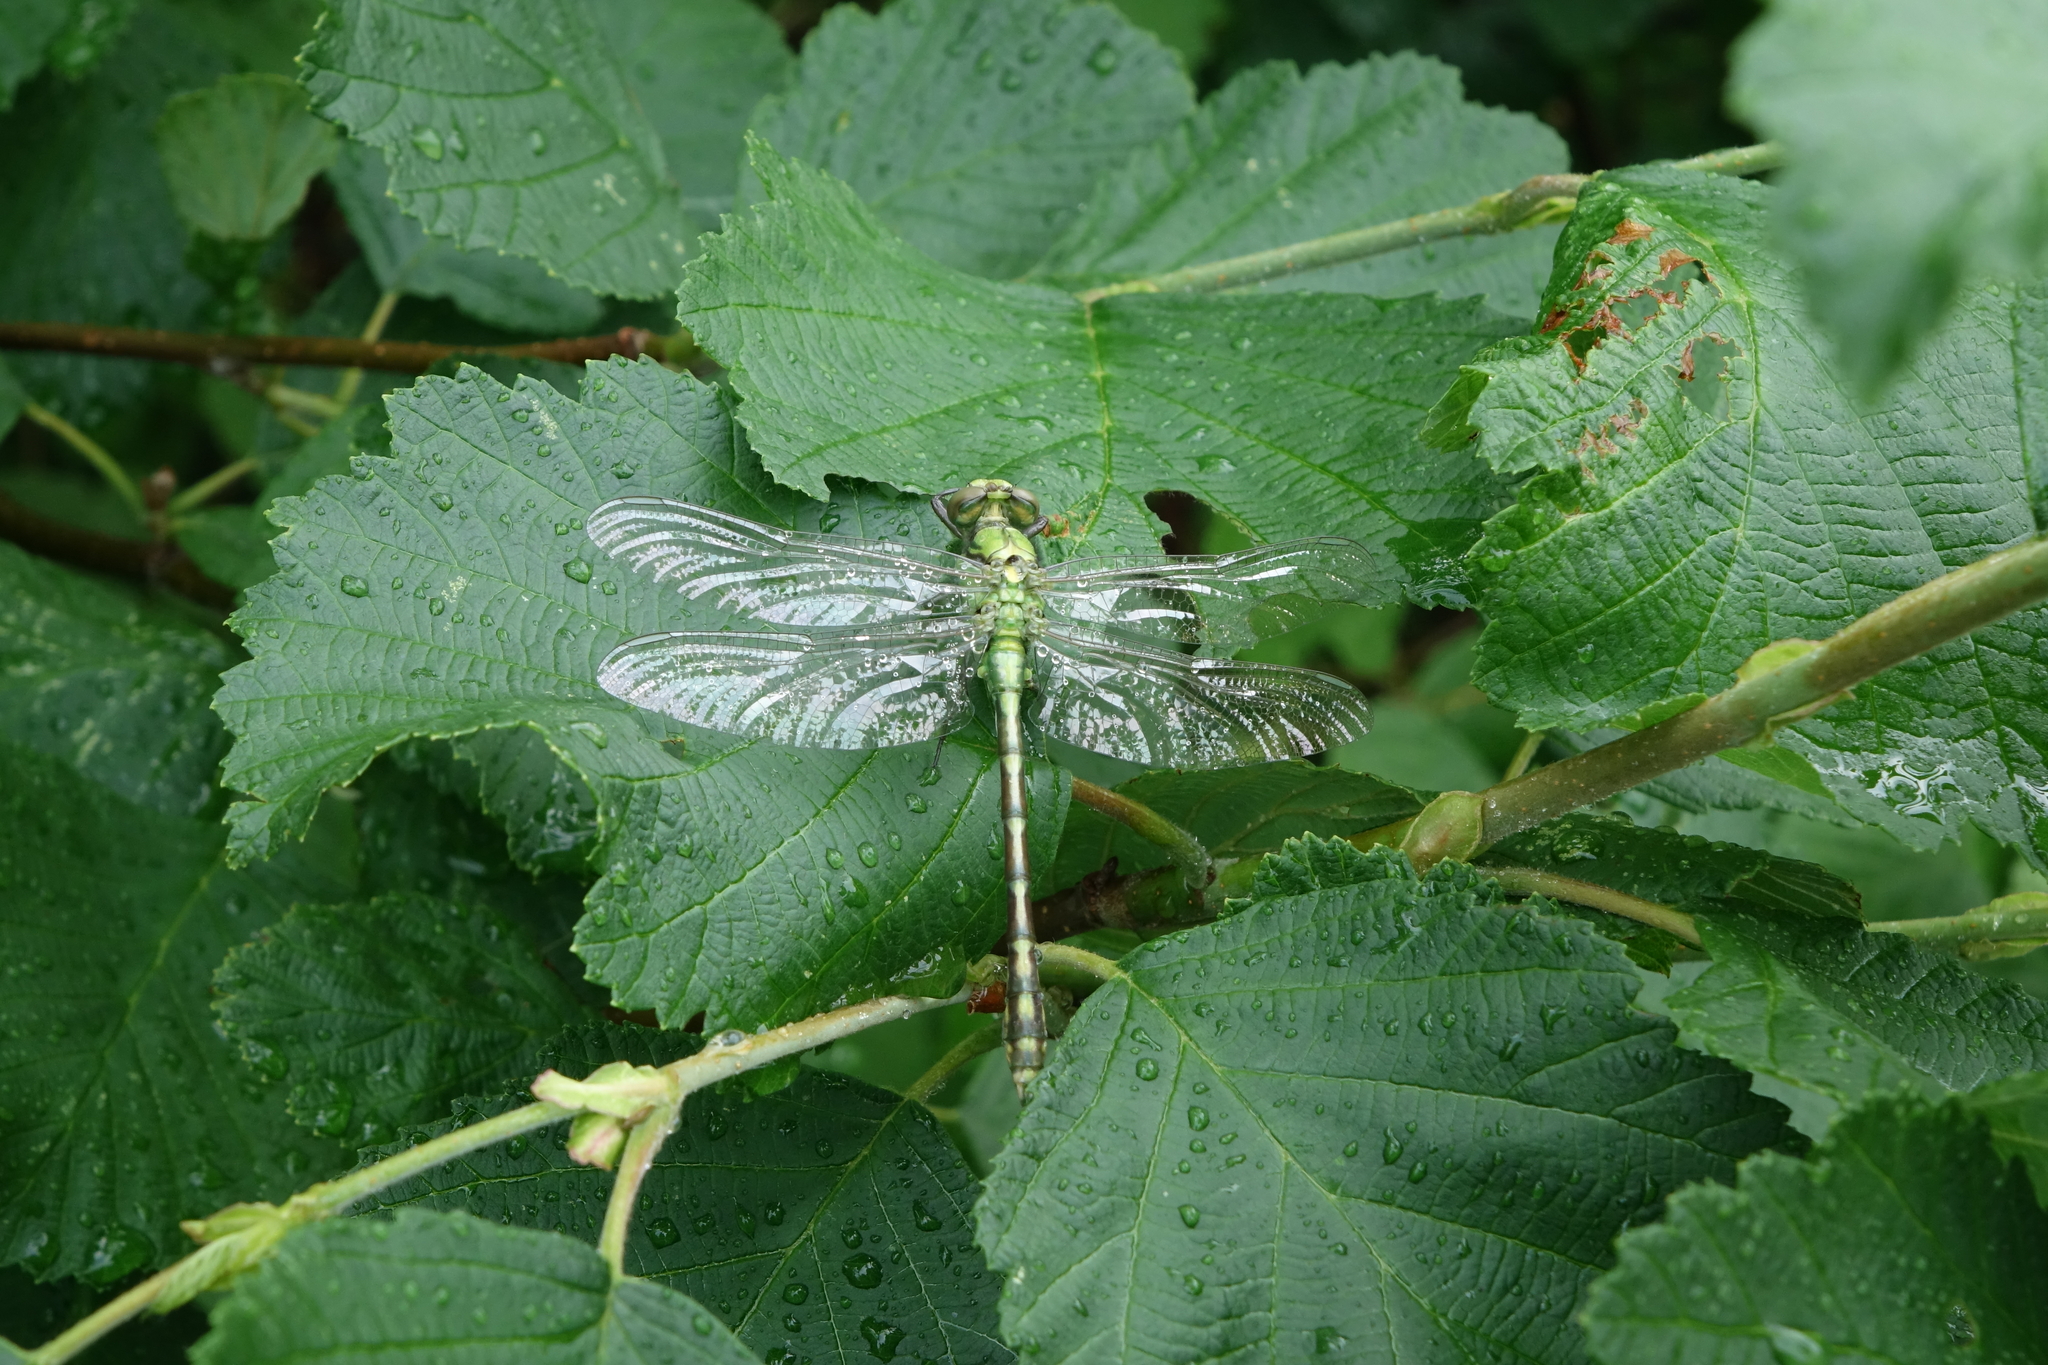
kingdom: Plantae
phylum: Tracheophyta
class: Magnoliopsida
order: Fagales
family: Betulaceae
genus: Alnus
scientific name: Alnus hirsuta
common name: Manchurian alder
